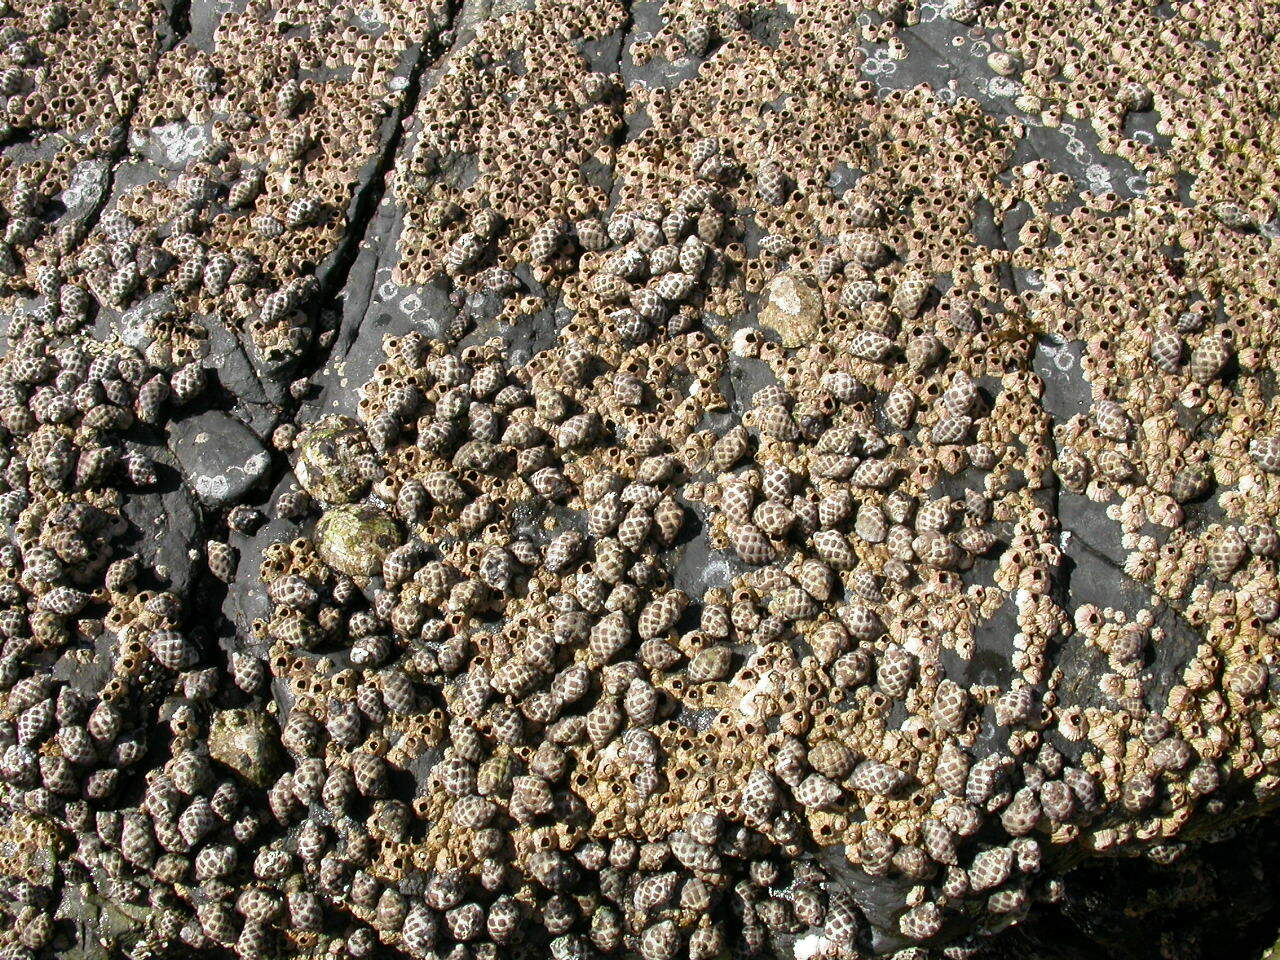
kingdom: Animalia
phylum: Mollusca
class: Gastropoda
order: Neogastropoda
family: Muricidae
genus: Tenguella
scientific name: Tenguella marginalba
